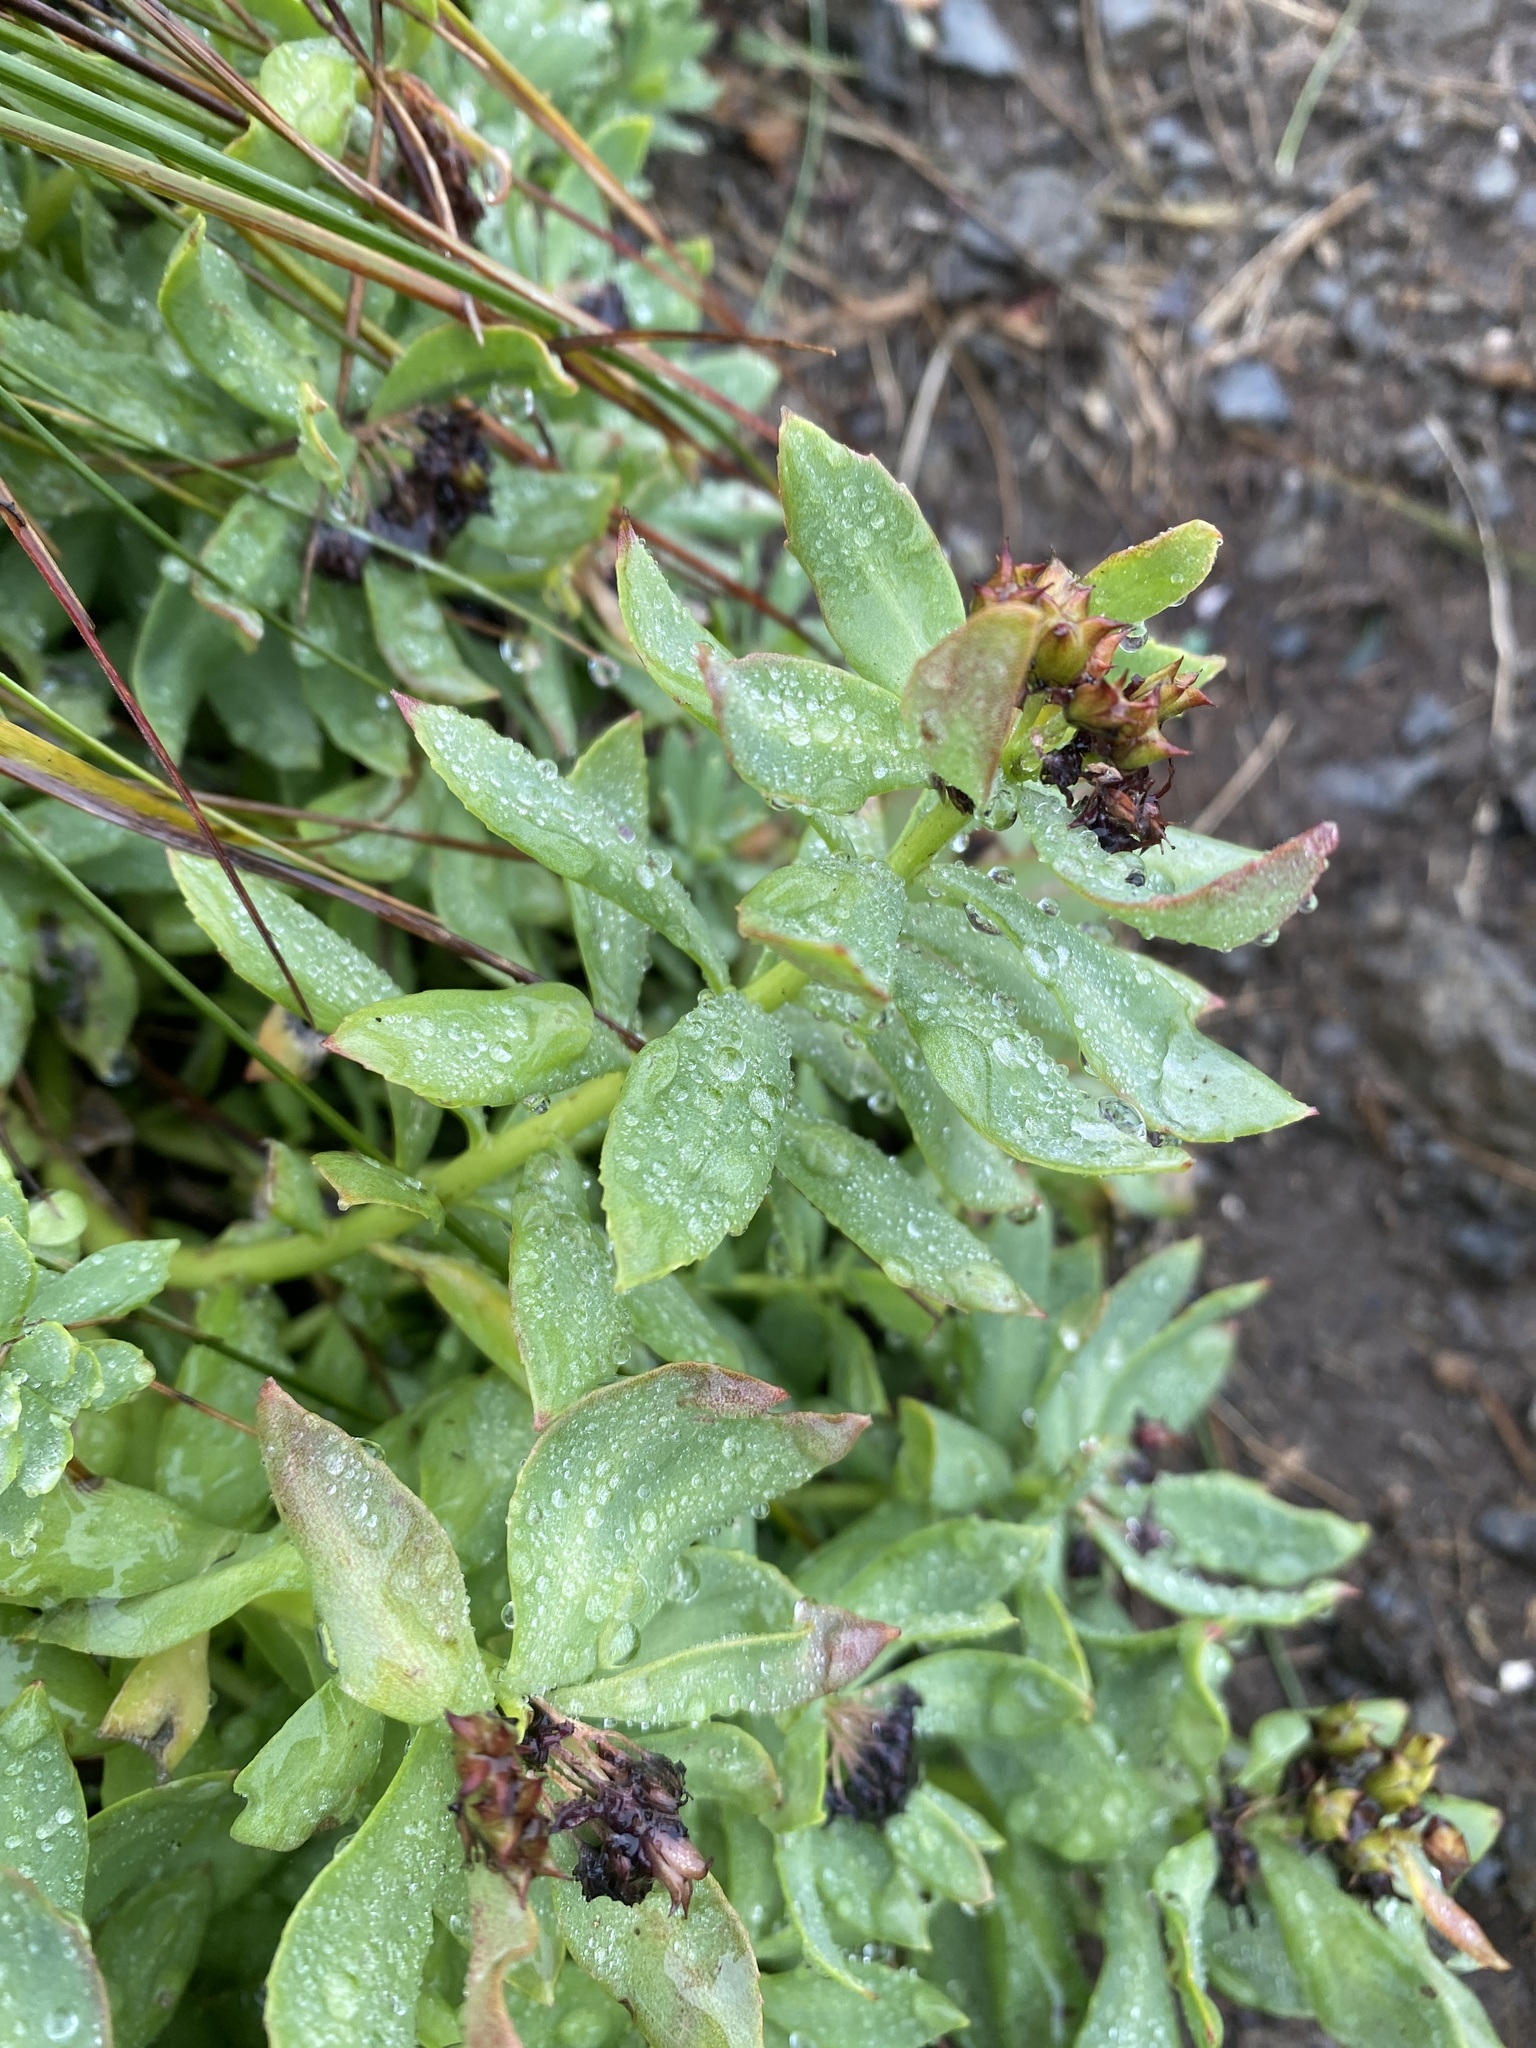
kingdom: Plantae
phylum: Tracheophyta
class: Magnoliopsida
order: Saxifragales
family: Crassulaceae
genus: Rhodiola
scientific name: Rhodiola integrifolia
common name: Western roseroot
